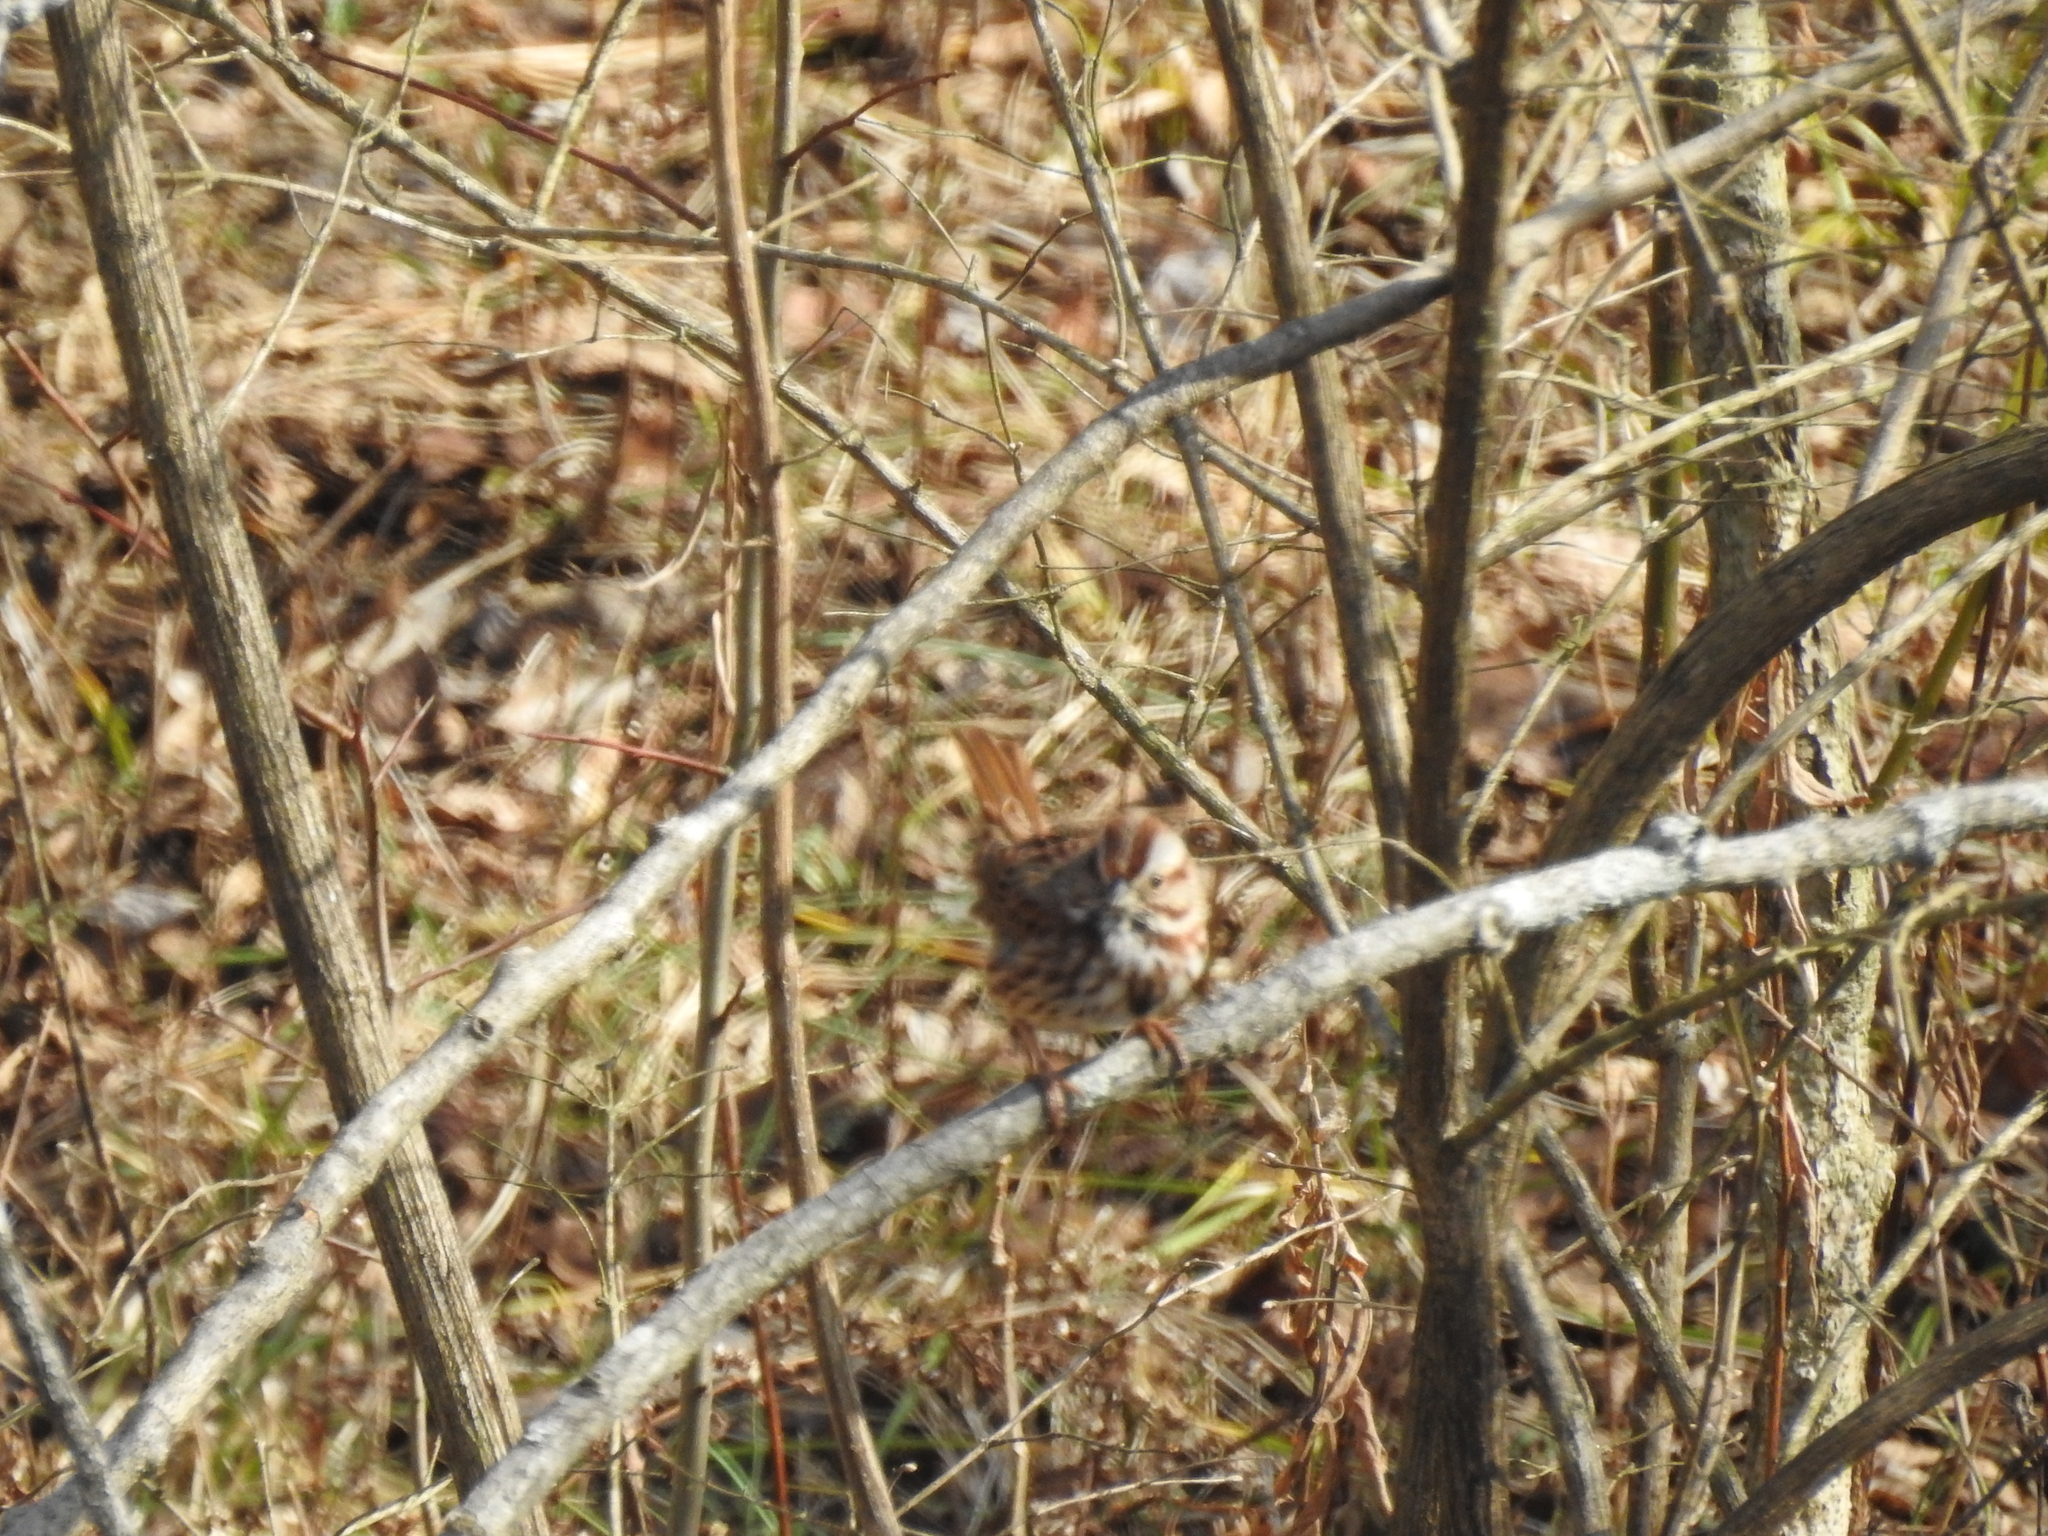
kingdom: Animalia
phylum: Chordata
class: Aves
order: Passeriformes
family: Passerellidae
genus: Melospiza
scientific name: Melospiza melodia
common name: Song sparrow
